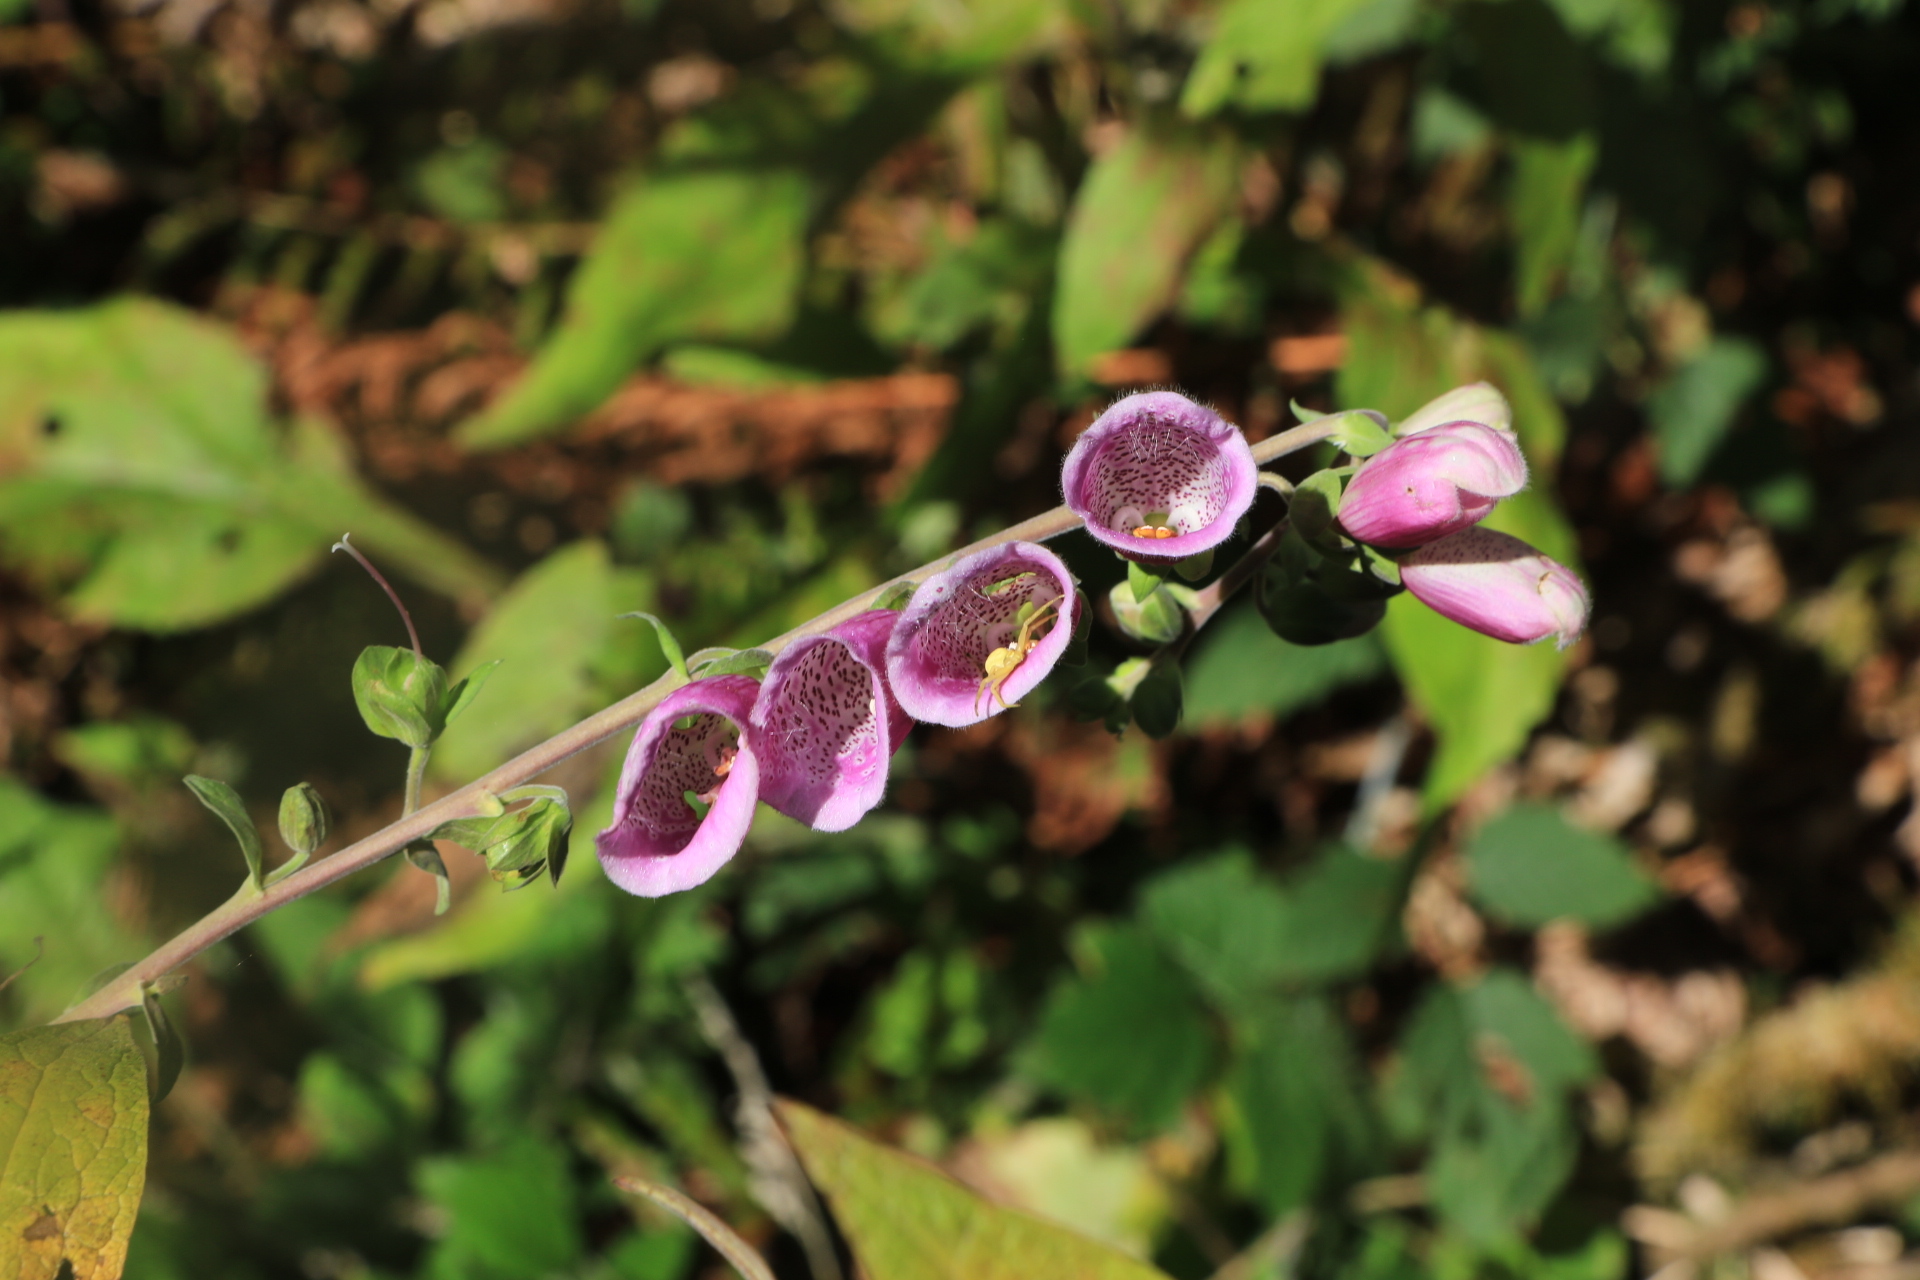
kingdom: Animalia
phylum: Arthropoda
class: Arachnida
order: Araneae
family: Thomisidae
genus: Misumena
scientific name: Misumena vatia
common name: Goldenrod crab spider
